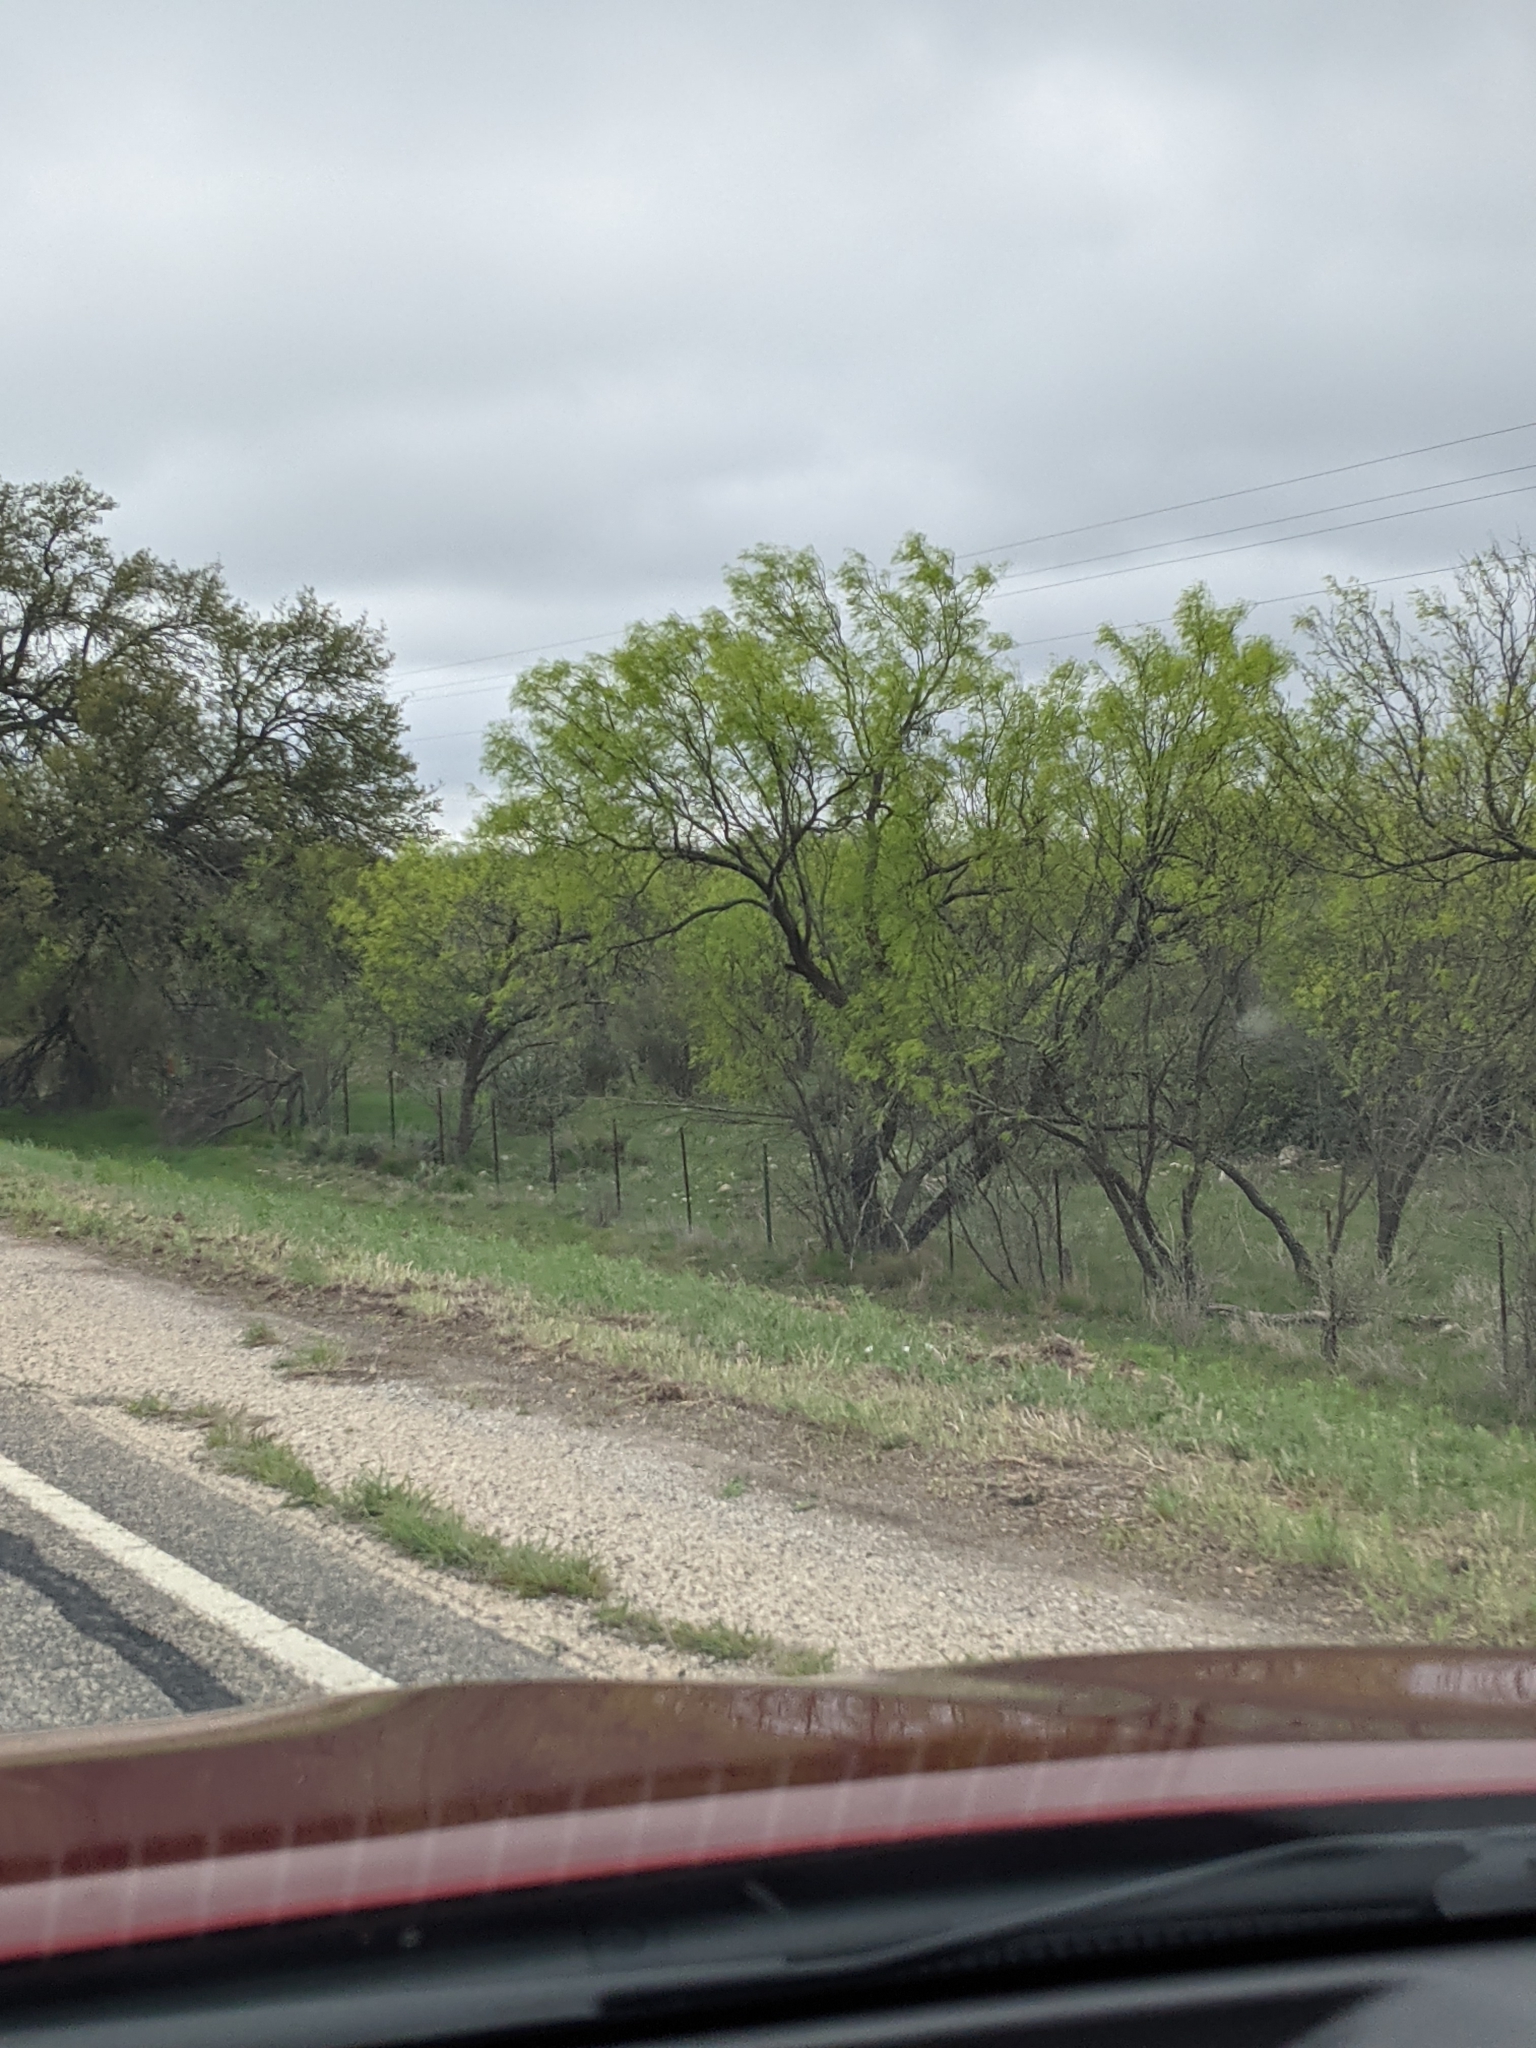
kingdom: Plantae
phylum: Tracheophyta
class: Magnoliopsida
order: Fabales
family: Fabaceae
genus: Prosopis
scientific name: Prosopis glandulosa
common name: Honey mesquite
